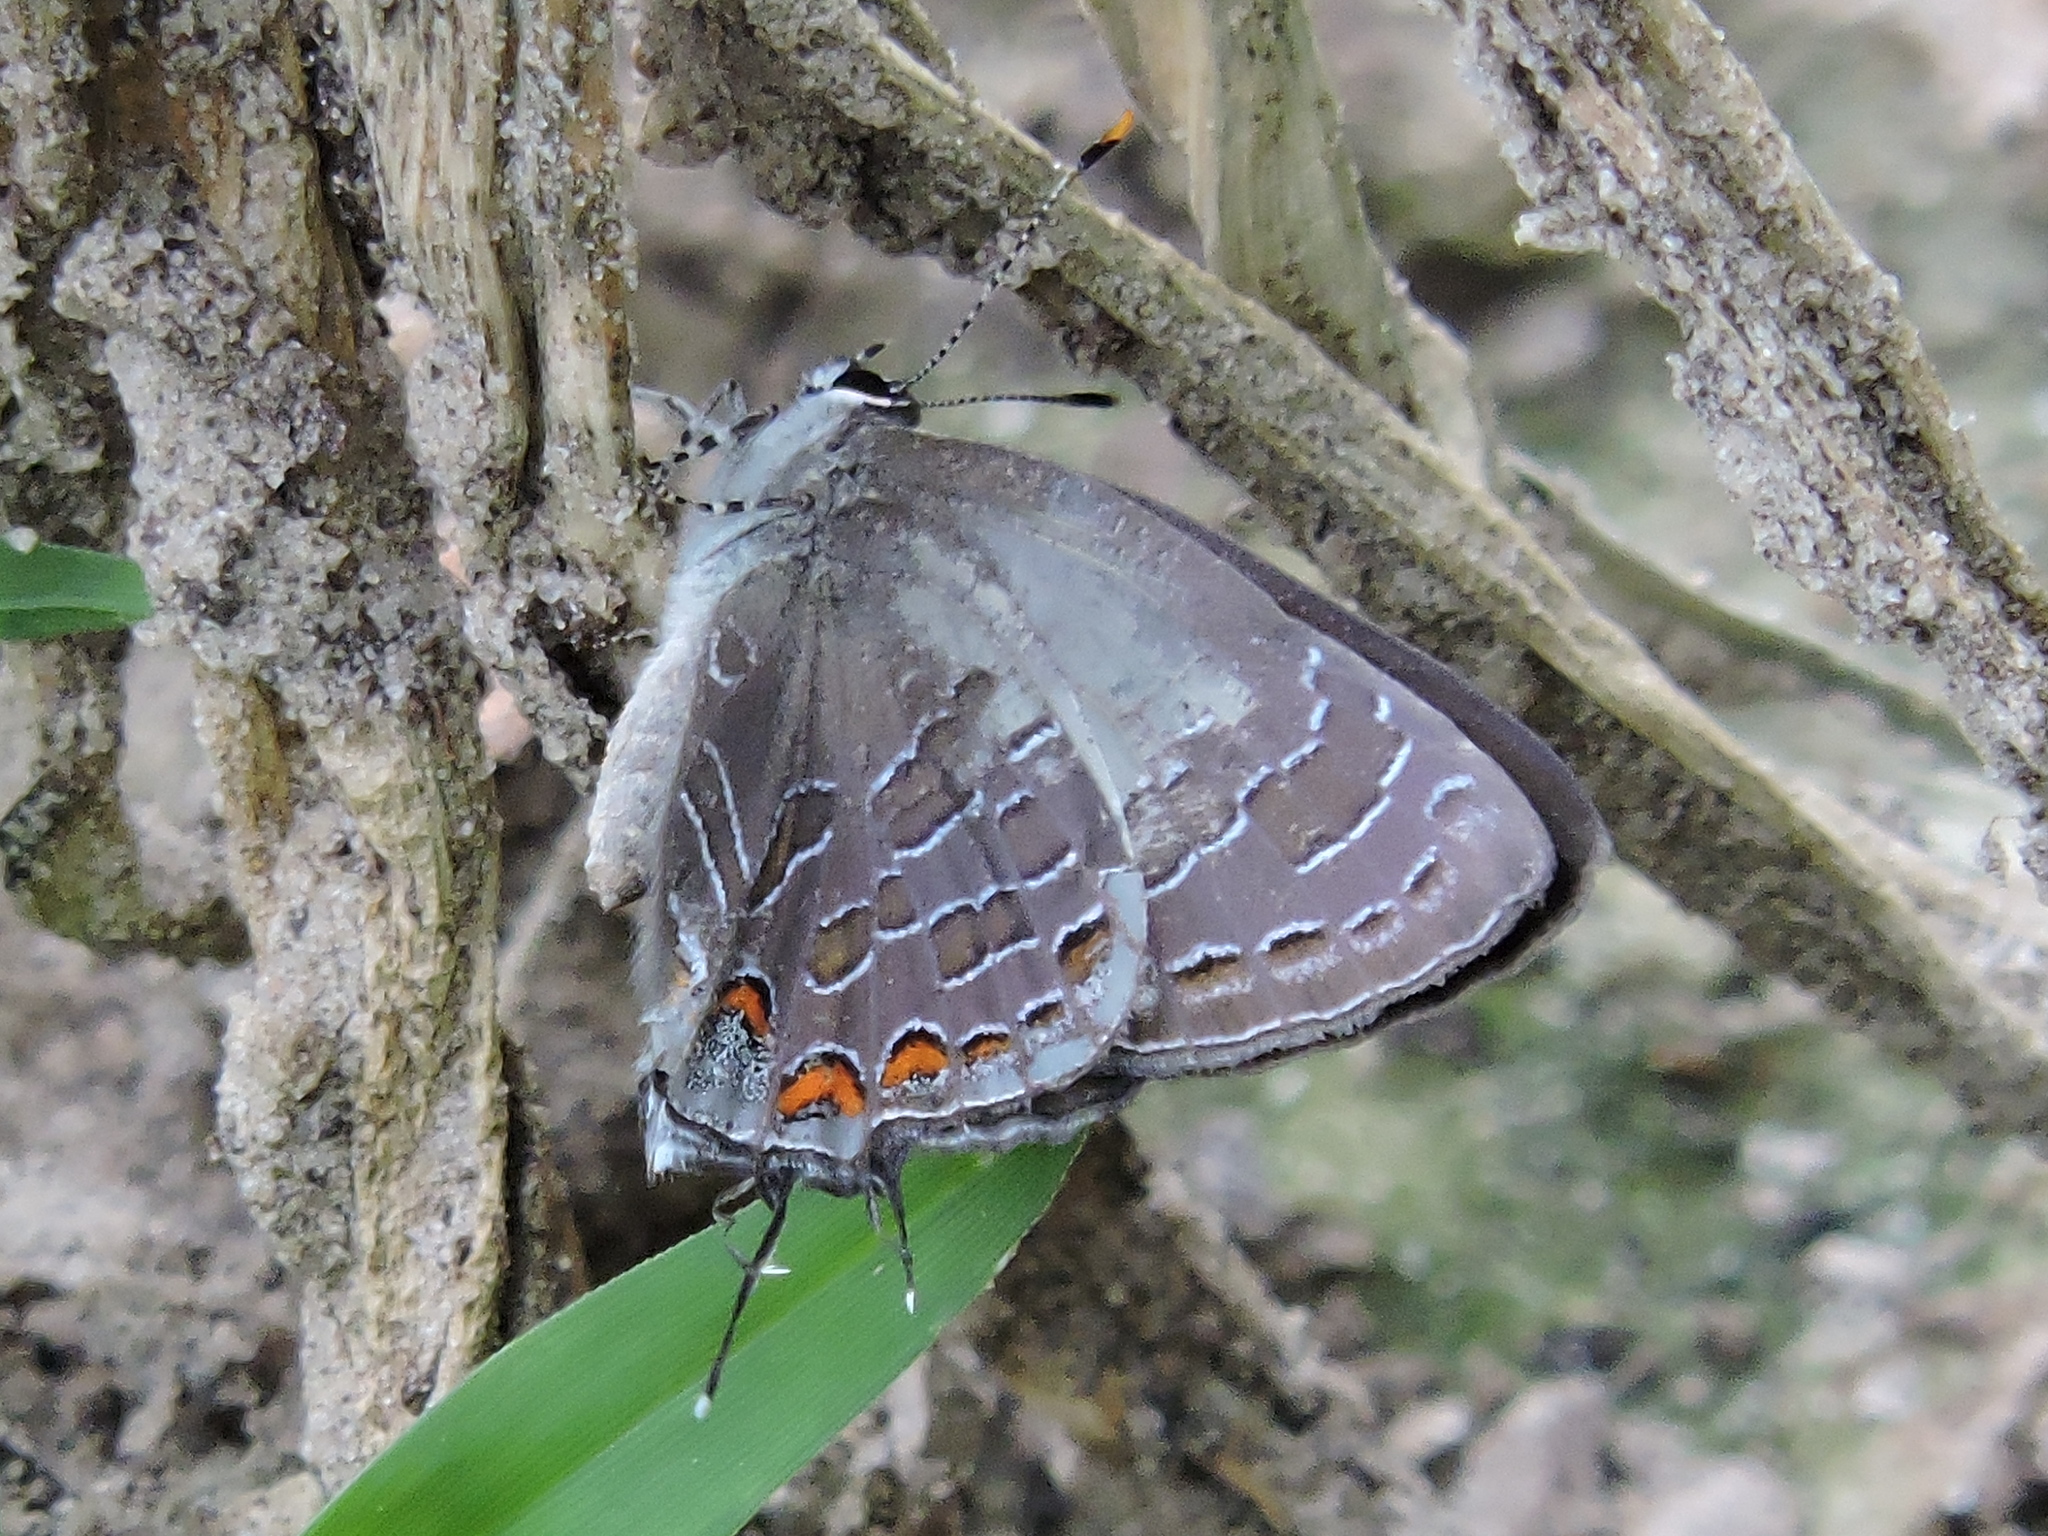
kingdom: Animalia
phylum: Arthropoda
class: Insecta
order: Lepidoptera
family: Lycaenidae
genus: Satyrium
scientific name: Satyrium liparops
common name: Striped hairstreak
